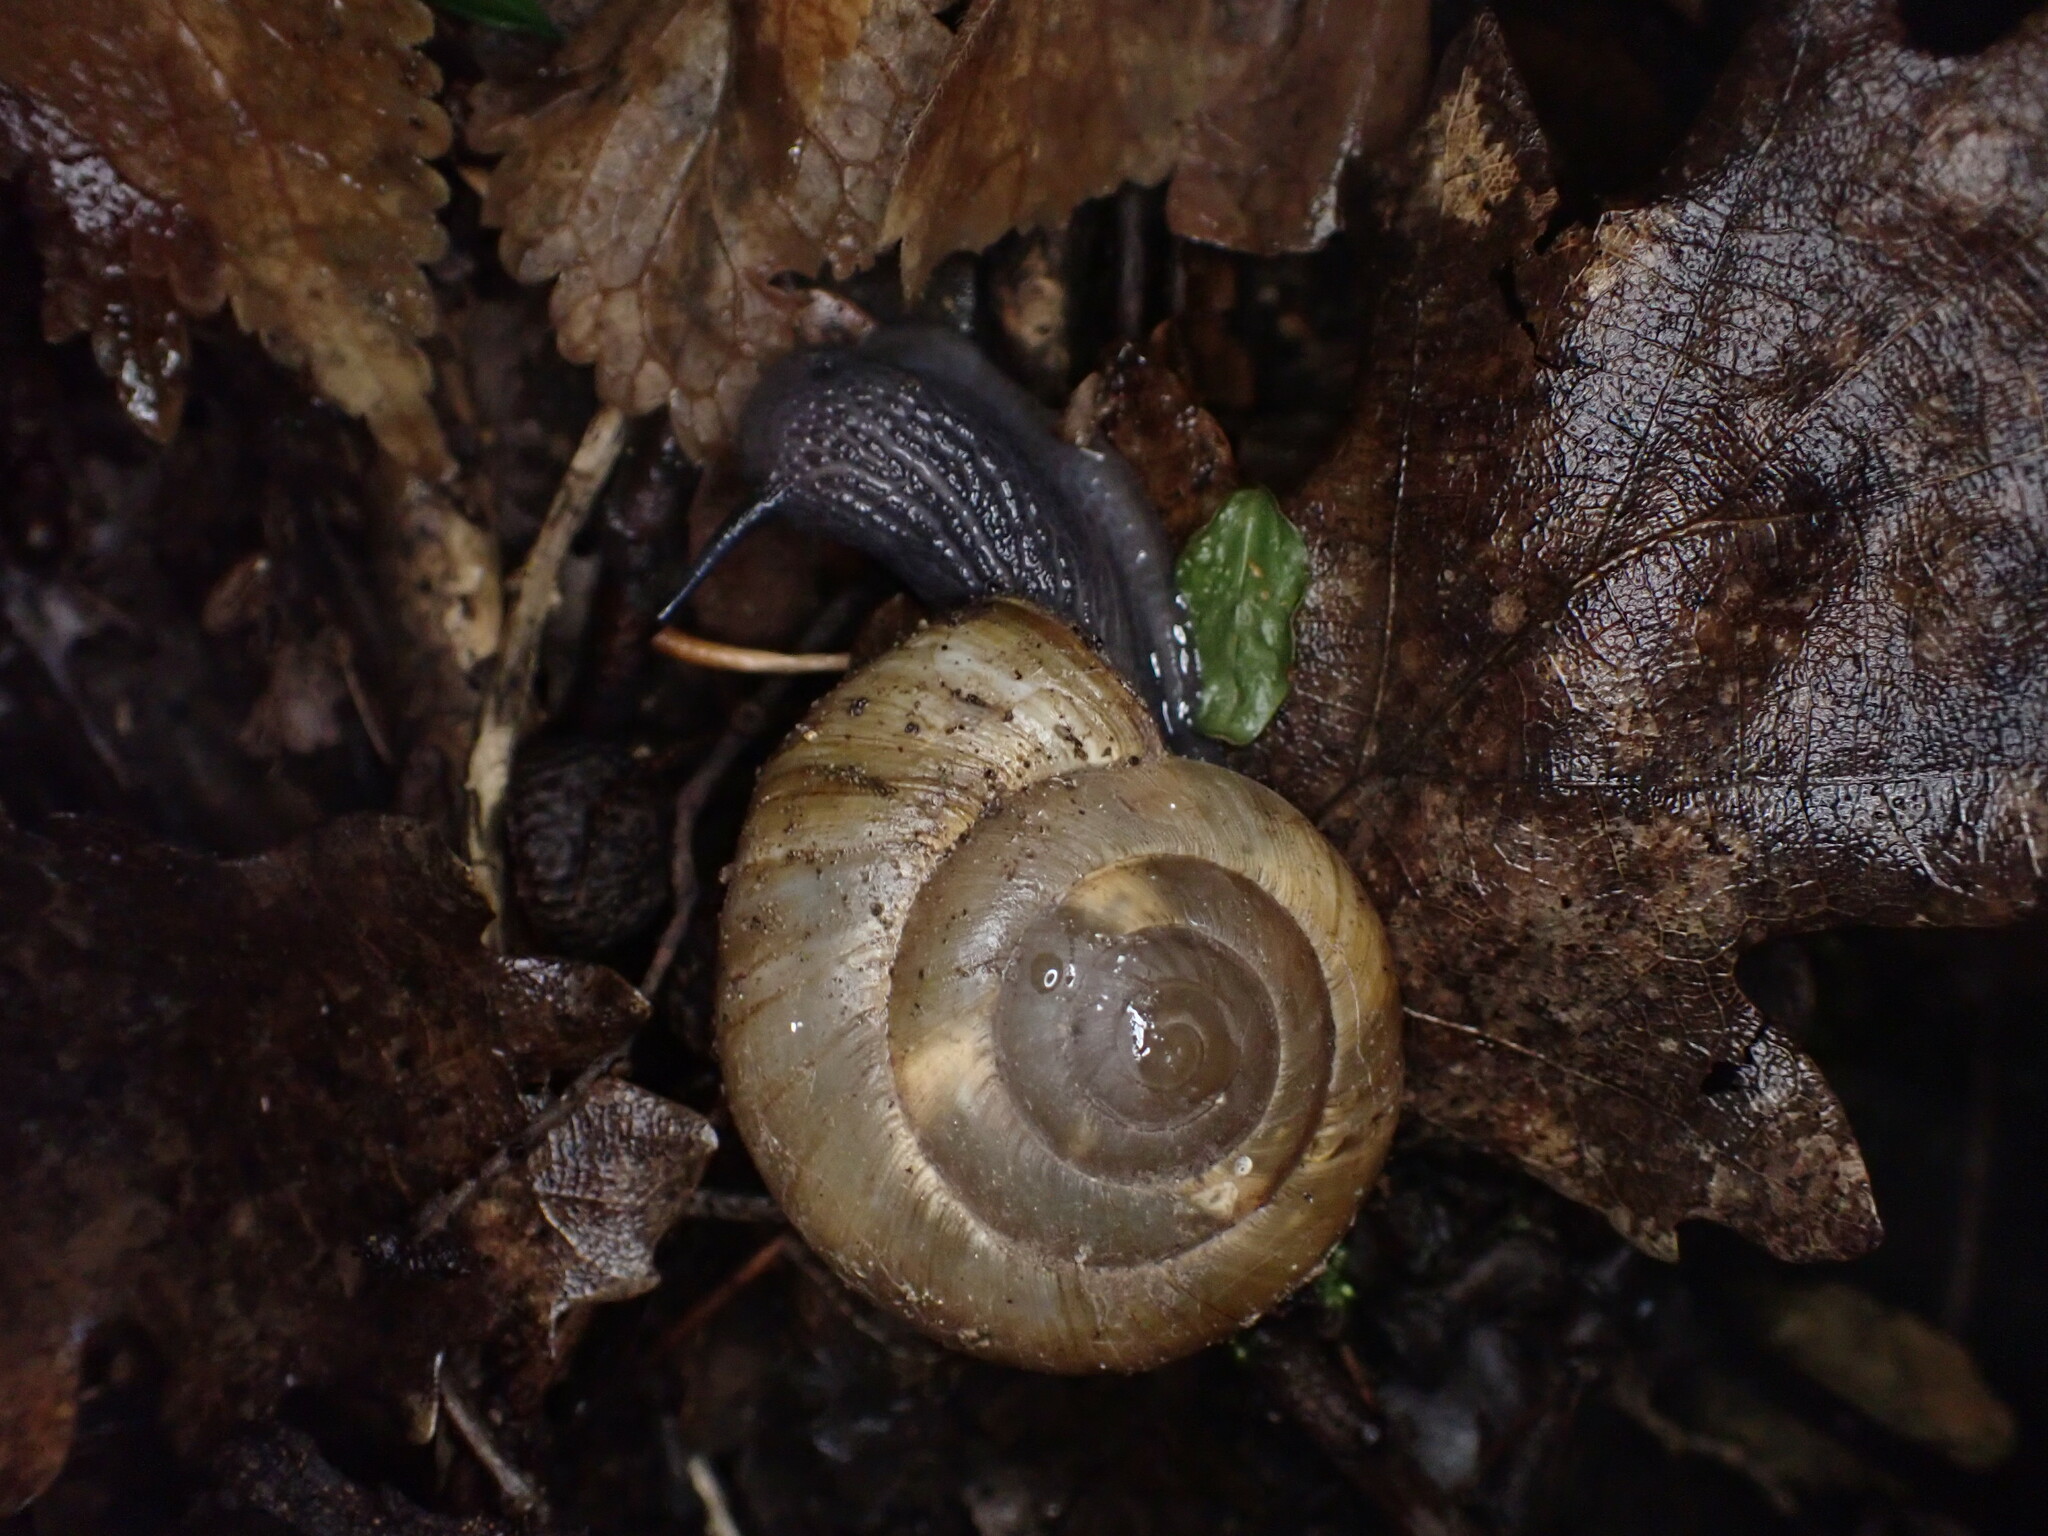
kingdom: Animalia
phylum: Mollusca
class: Gastropoda
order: Stylommatophora
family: Zonitidae
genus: Zonites
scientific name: Zonites algirus
